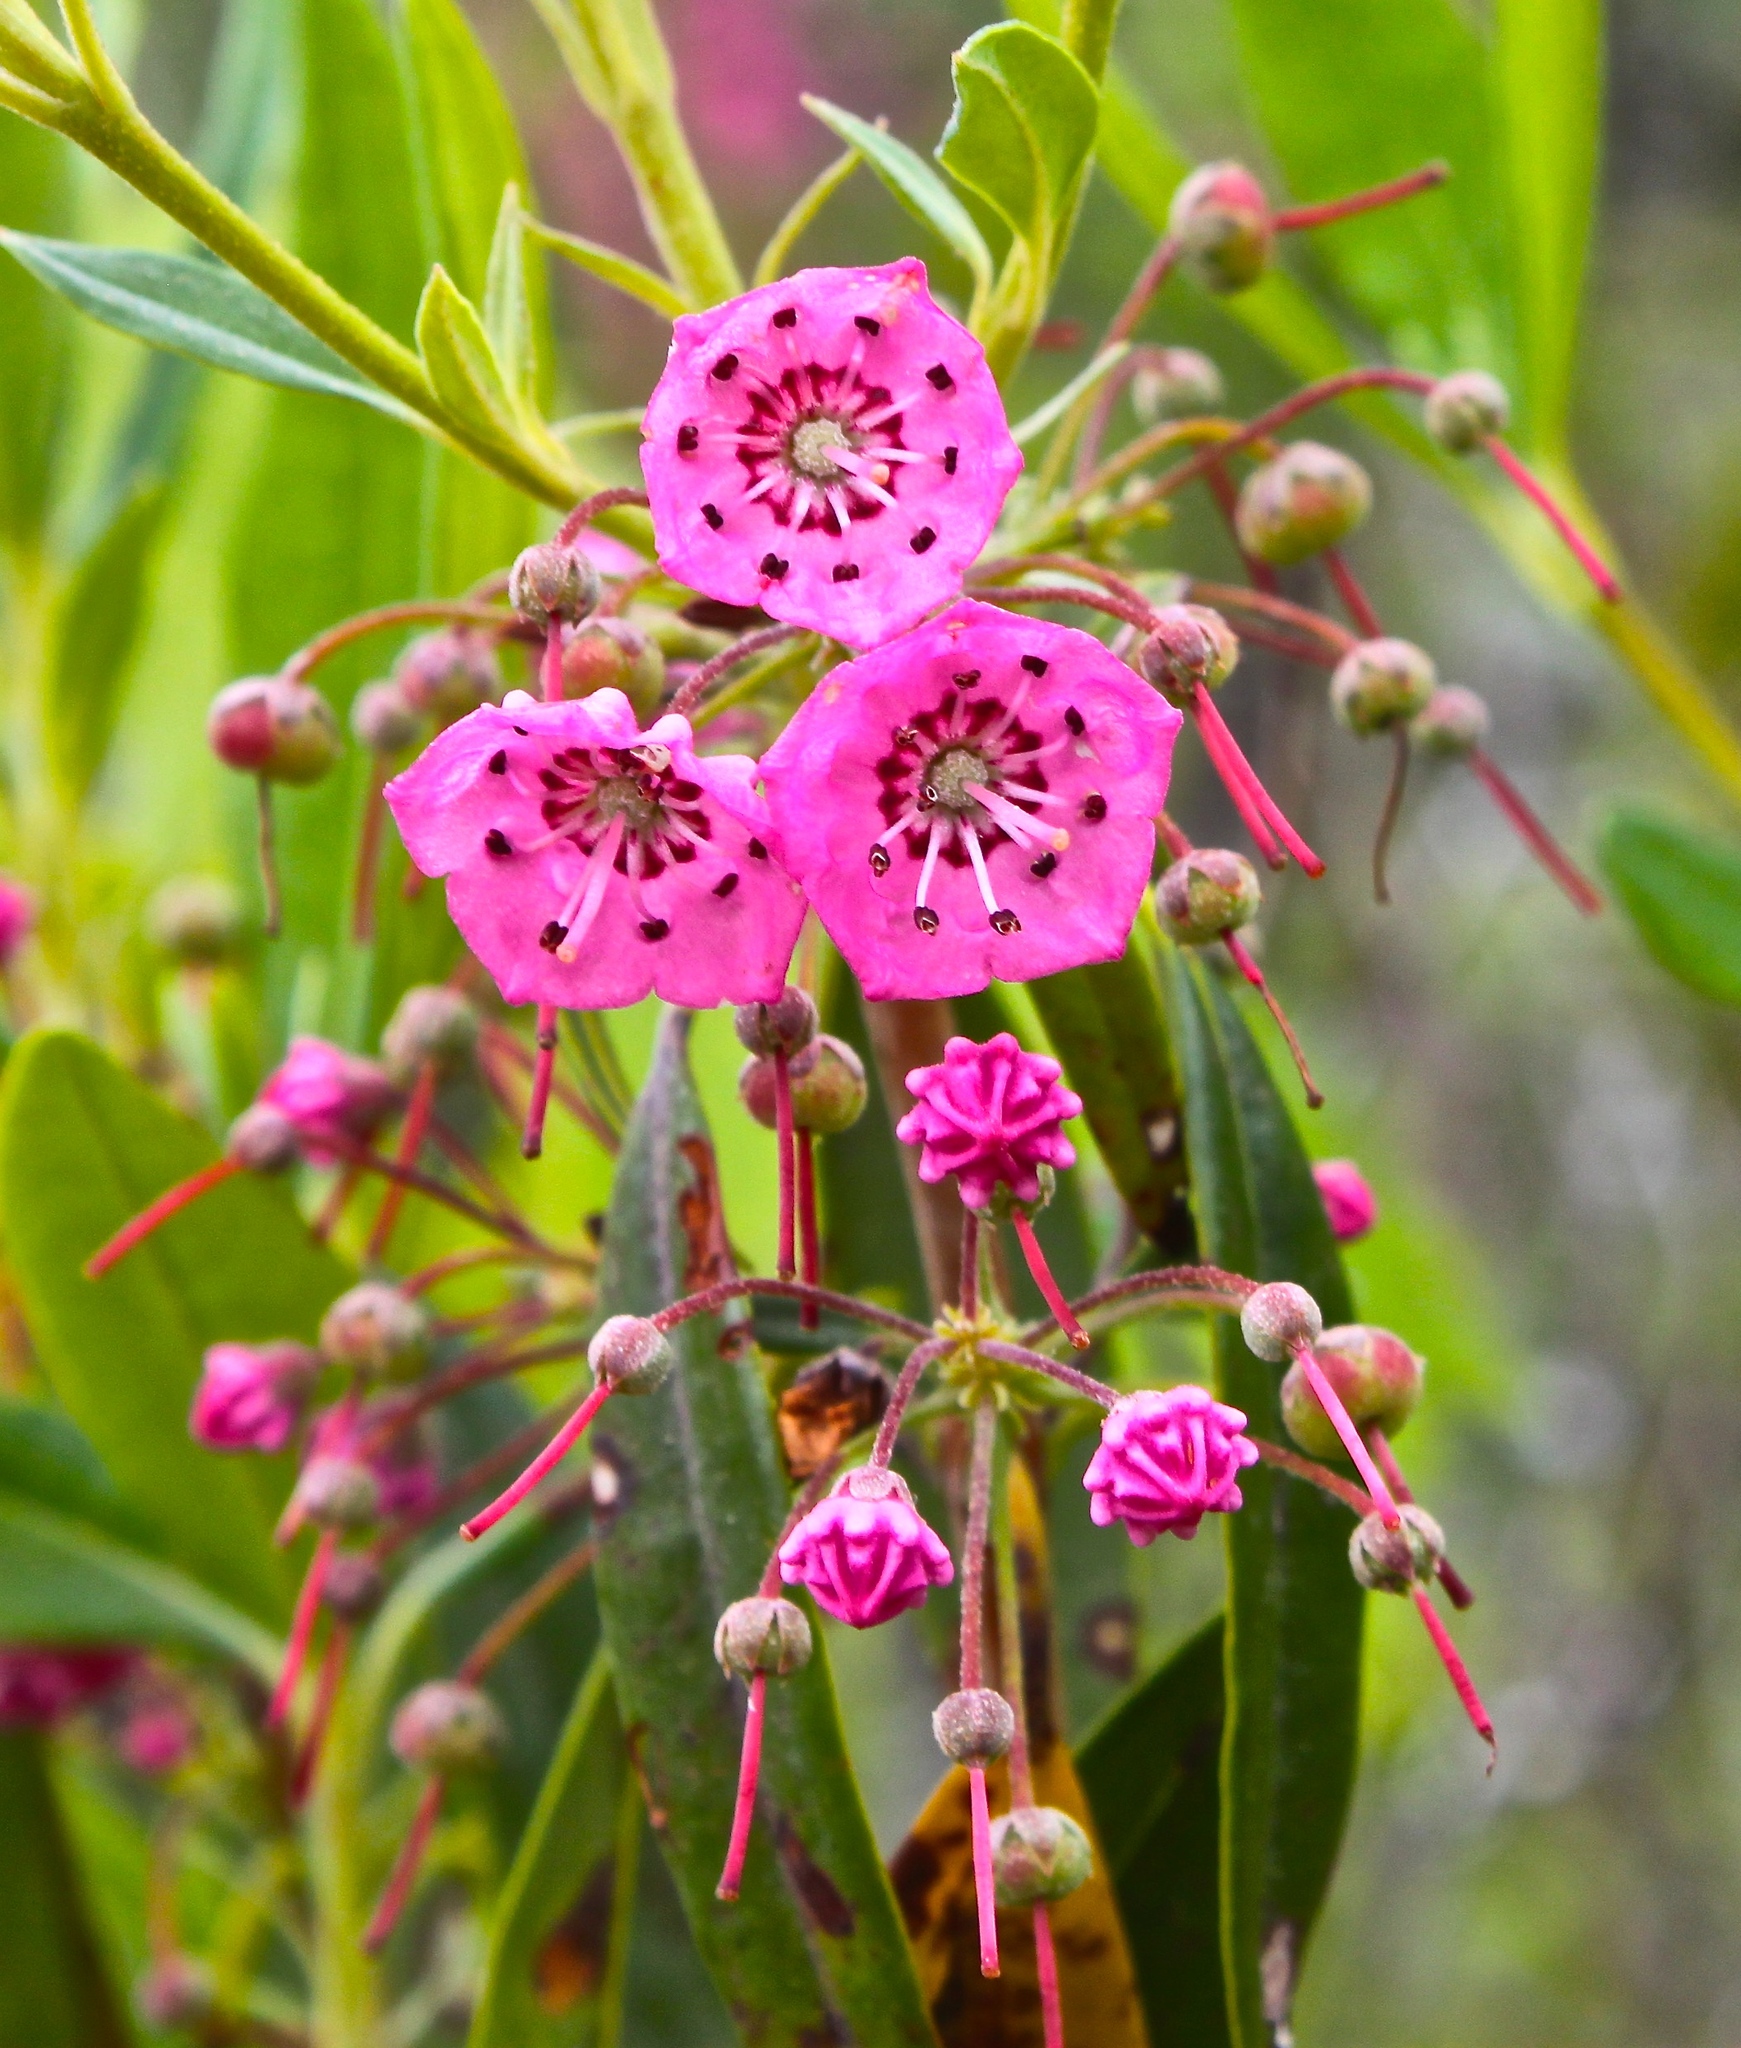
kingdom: Plantae
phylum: Tracheophyta
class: Magnoliopsida
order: Ericales
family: Ericaceae
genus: Kalmia
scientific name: Kalmia angustifolia
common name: Sheep-laurel
